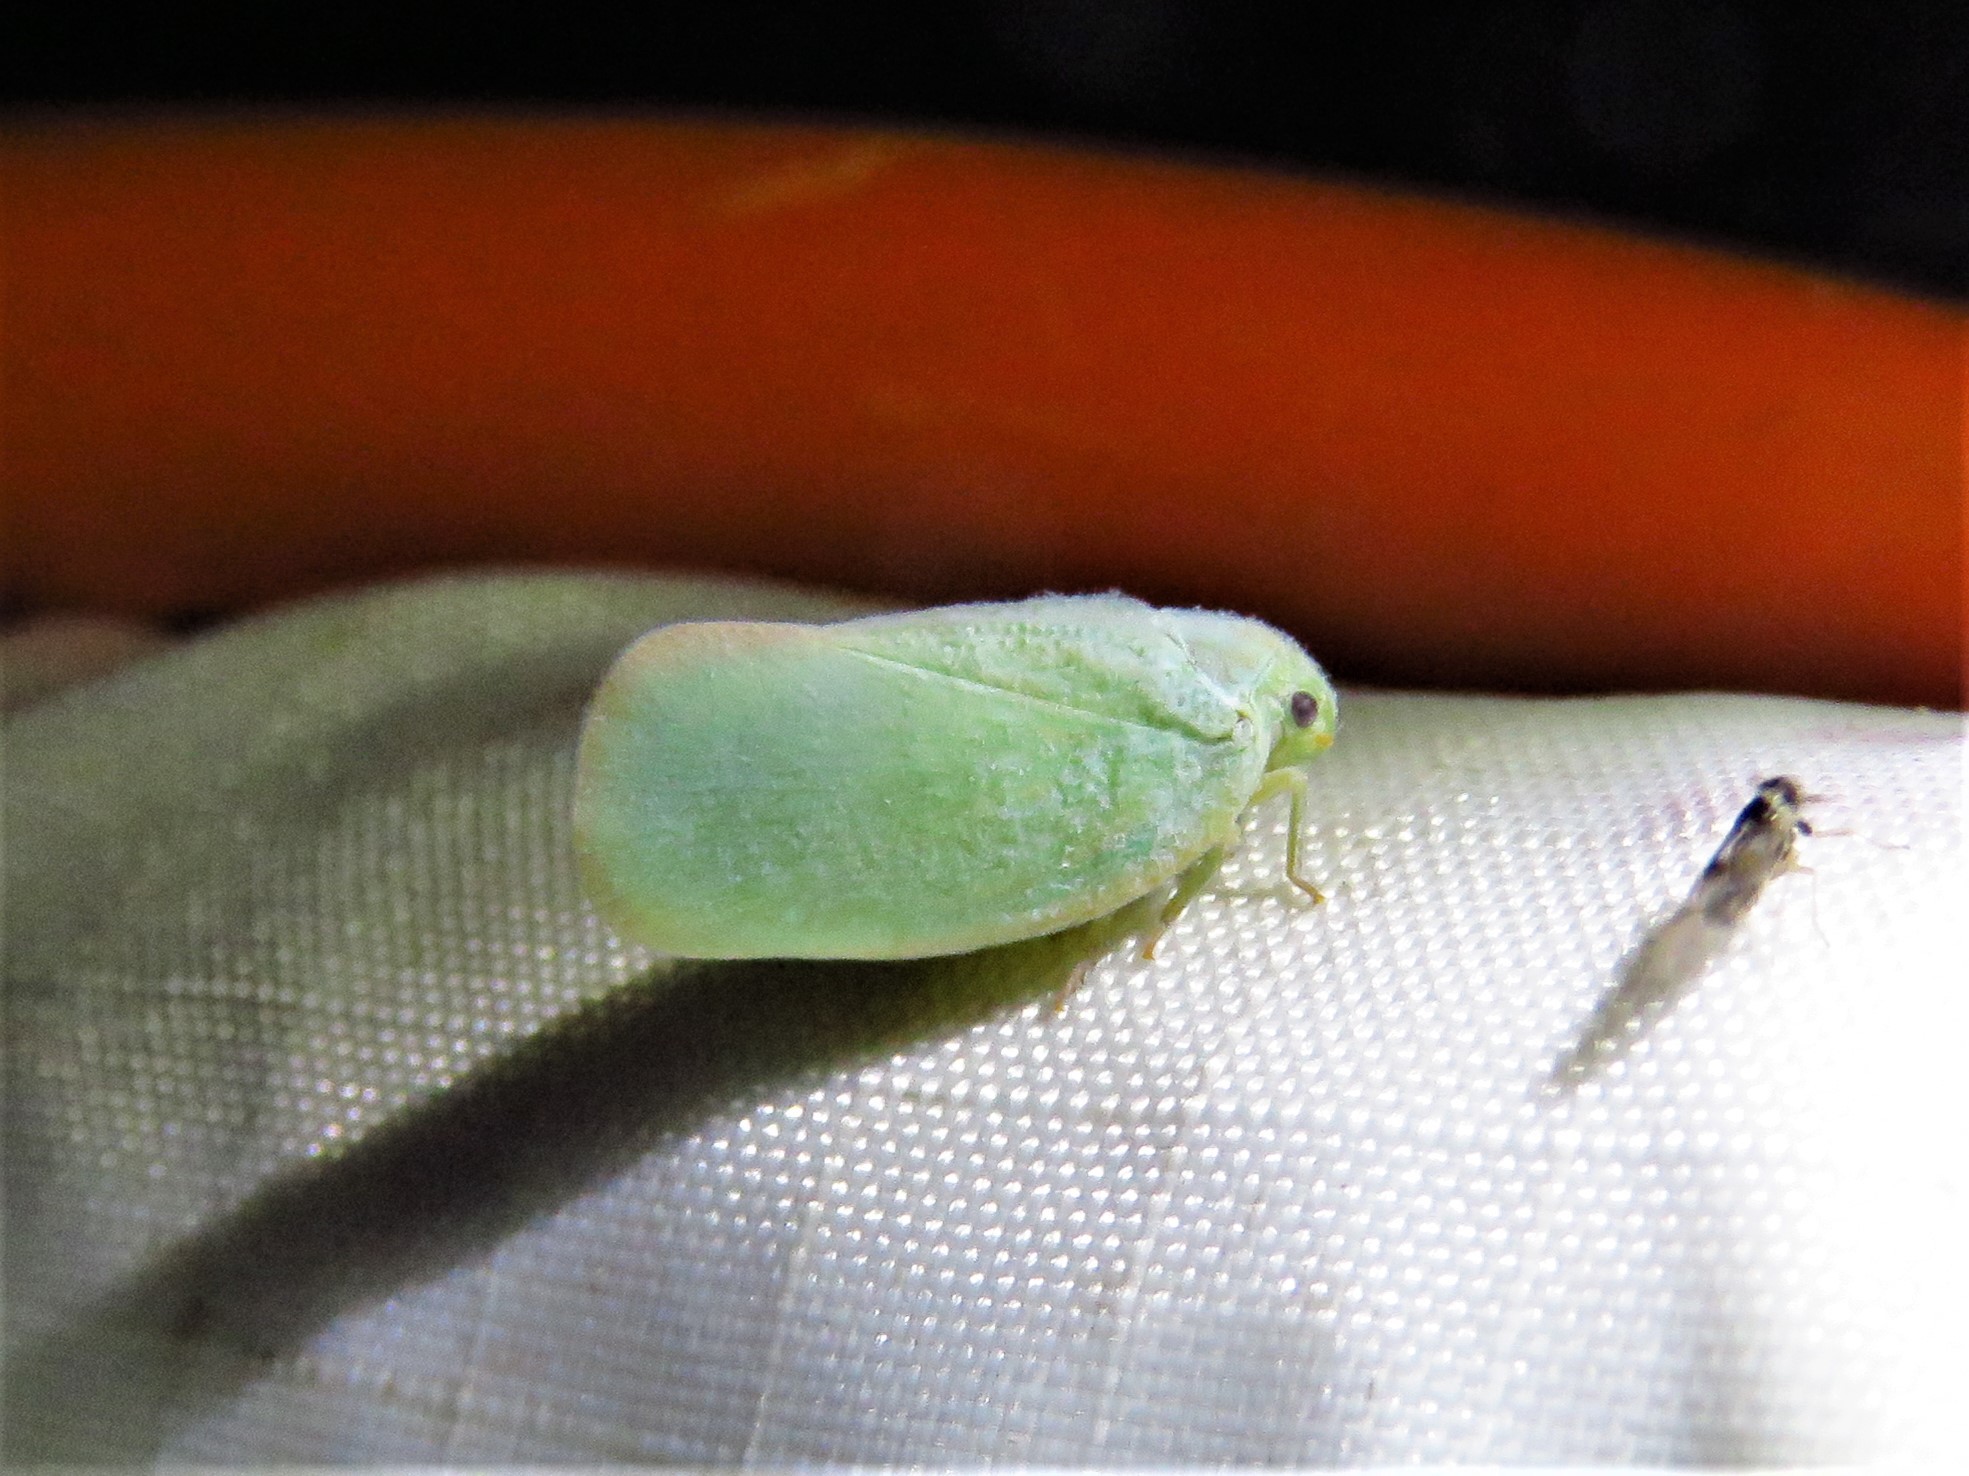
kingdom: Animalia
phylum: Arthropoda
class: Insecta
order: Hemiptera
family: Flatidae
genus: Ormenoides
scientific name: Ormenoides venusta
